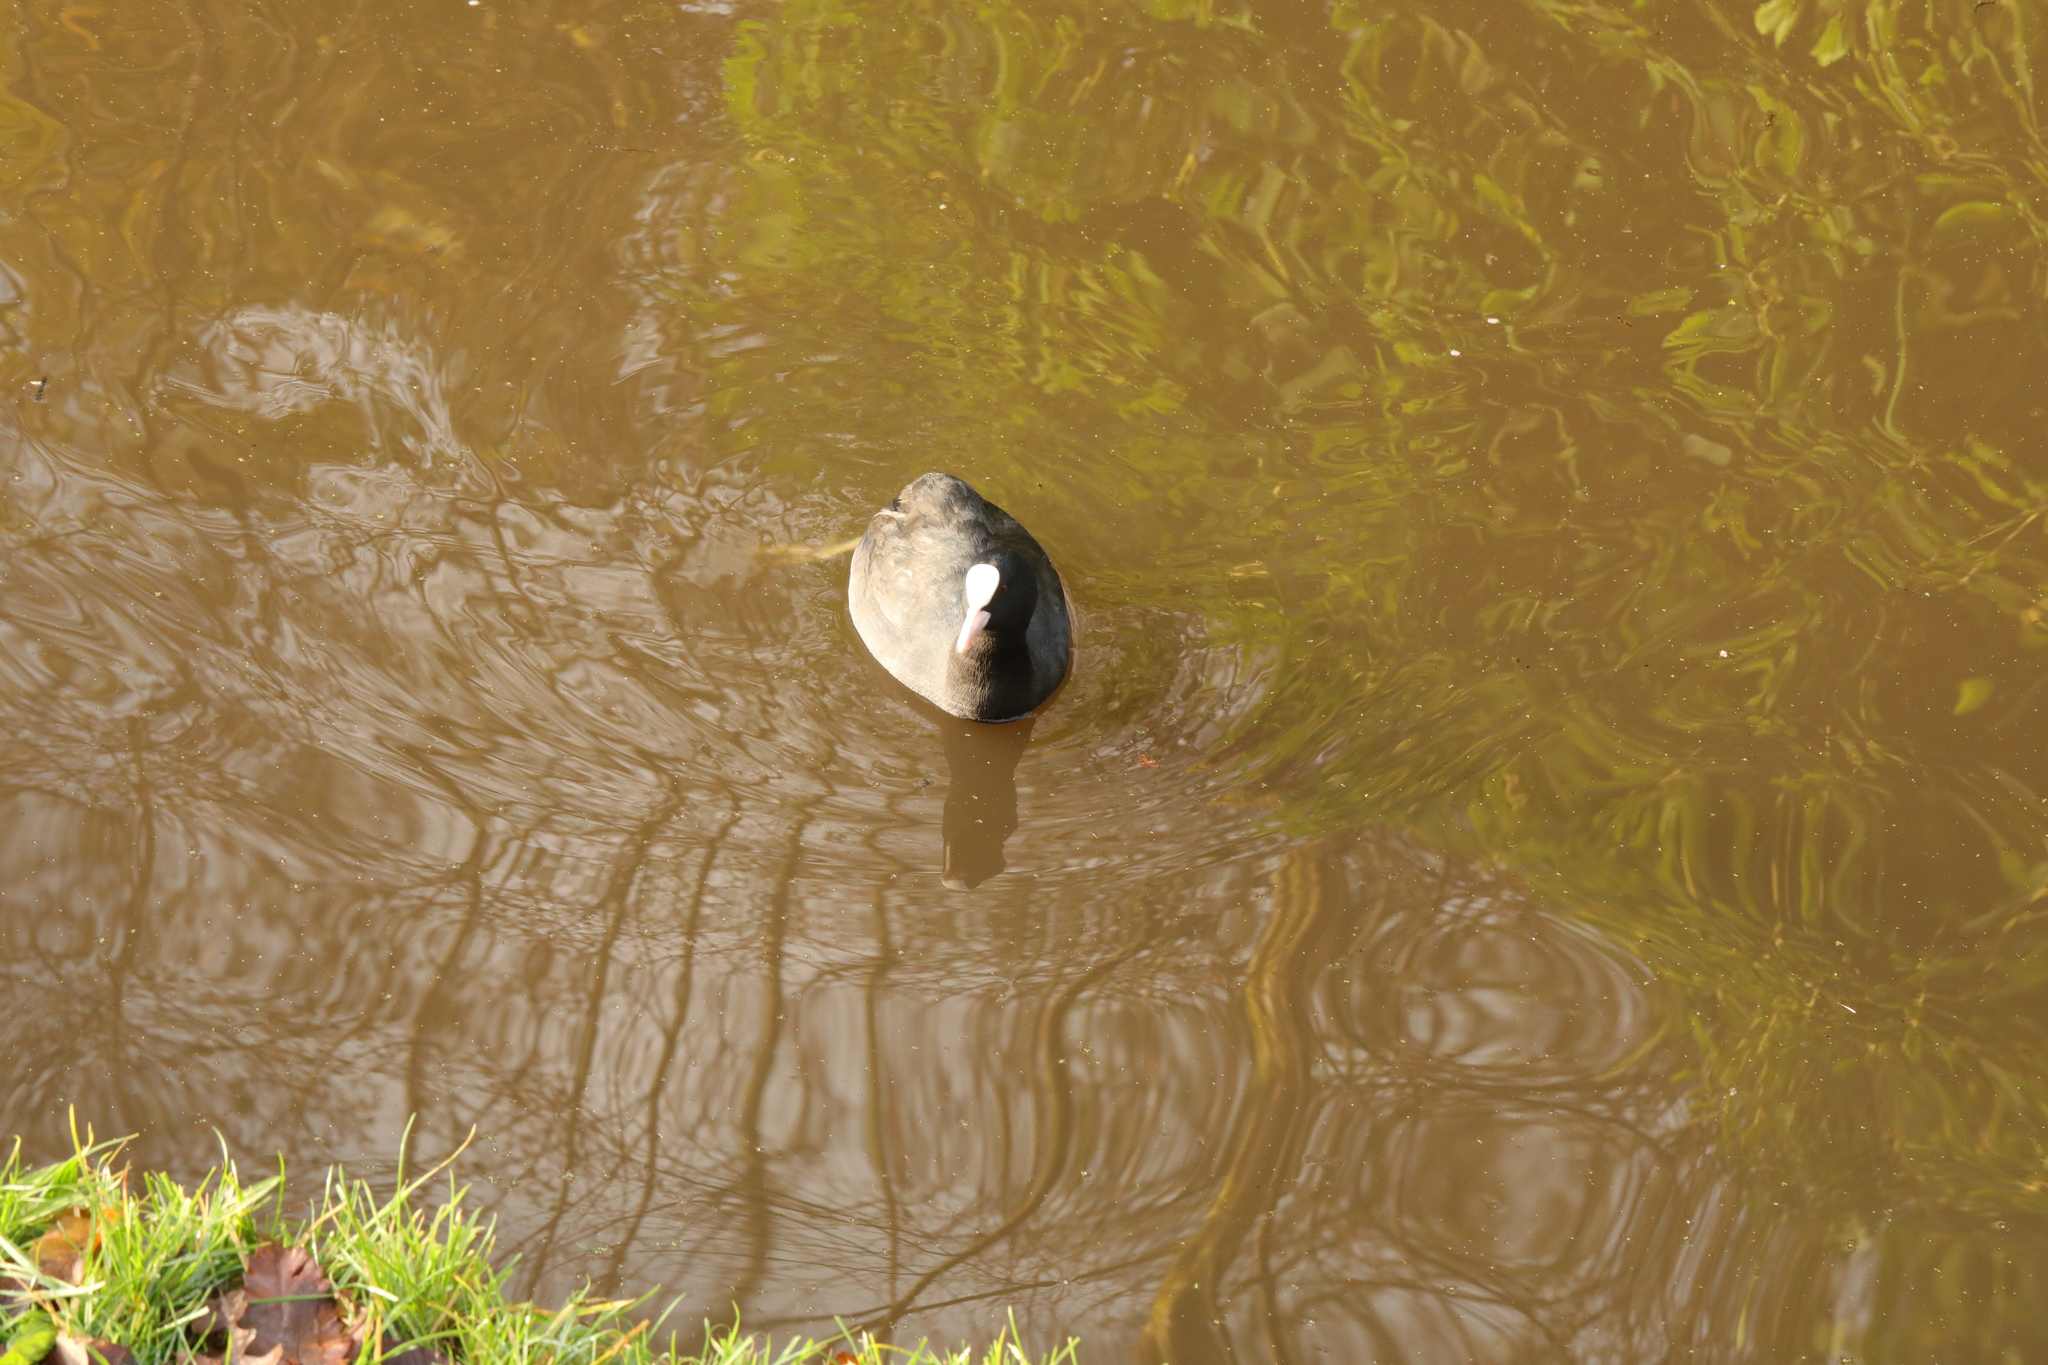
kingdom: Animalia
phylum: Chordata
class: Aves
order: Gruiformes
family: Rallidae
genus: Fulica
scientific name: Fulica atra
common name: Eurasian coot
